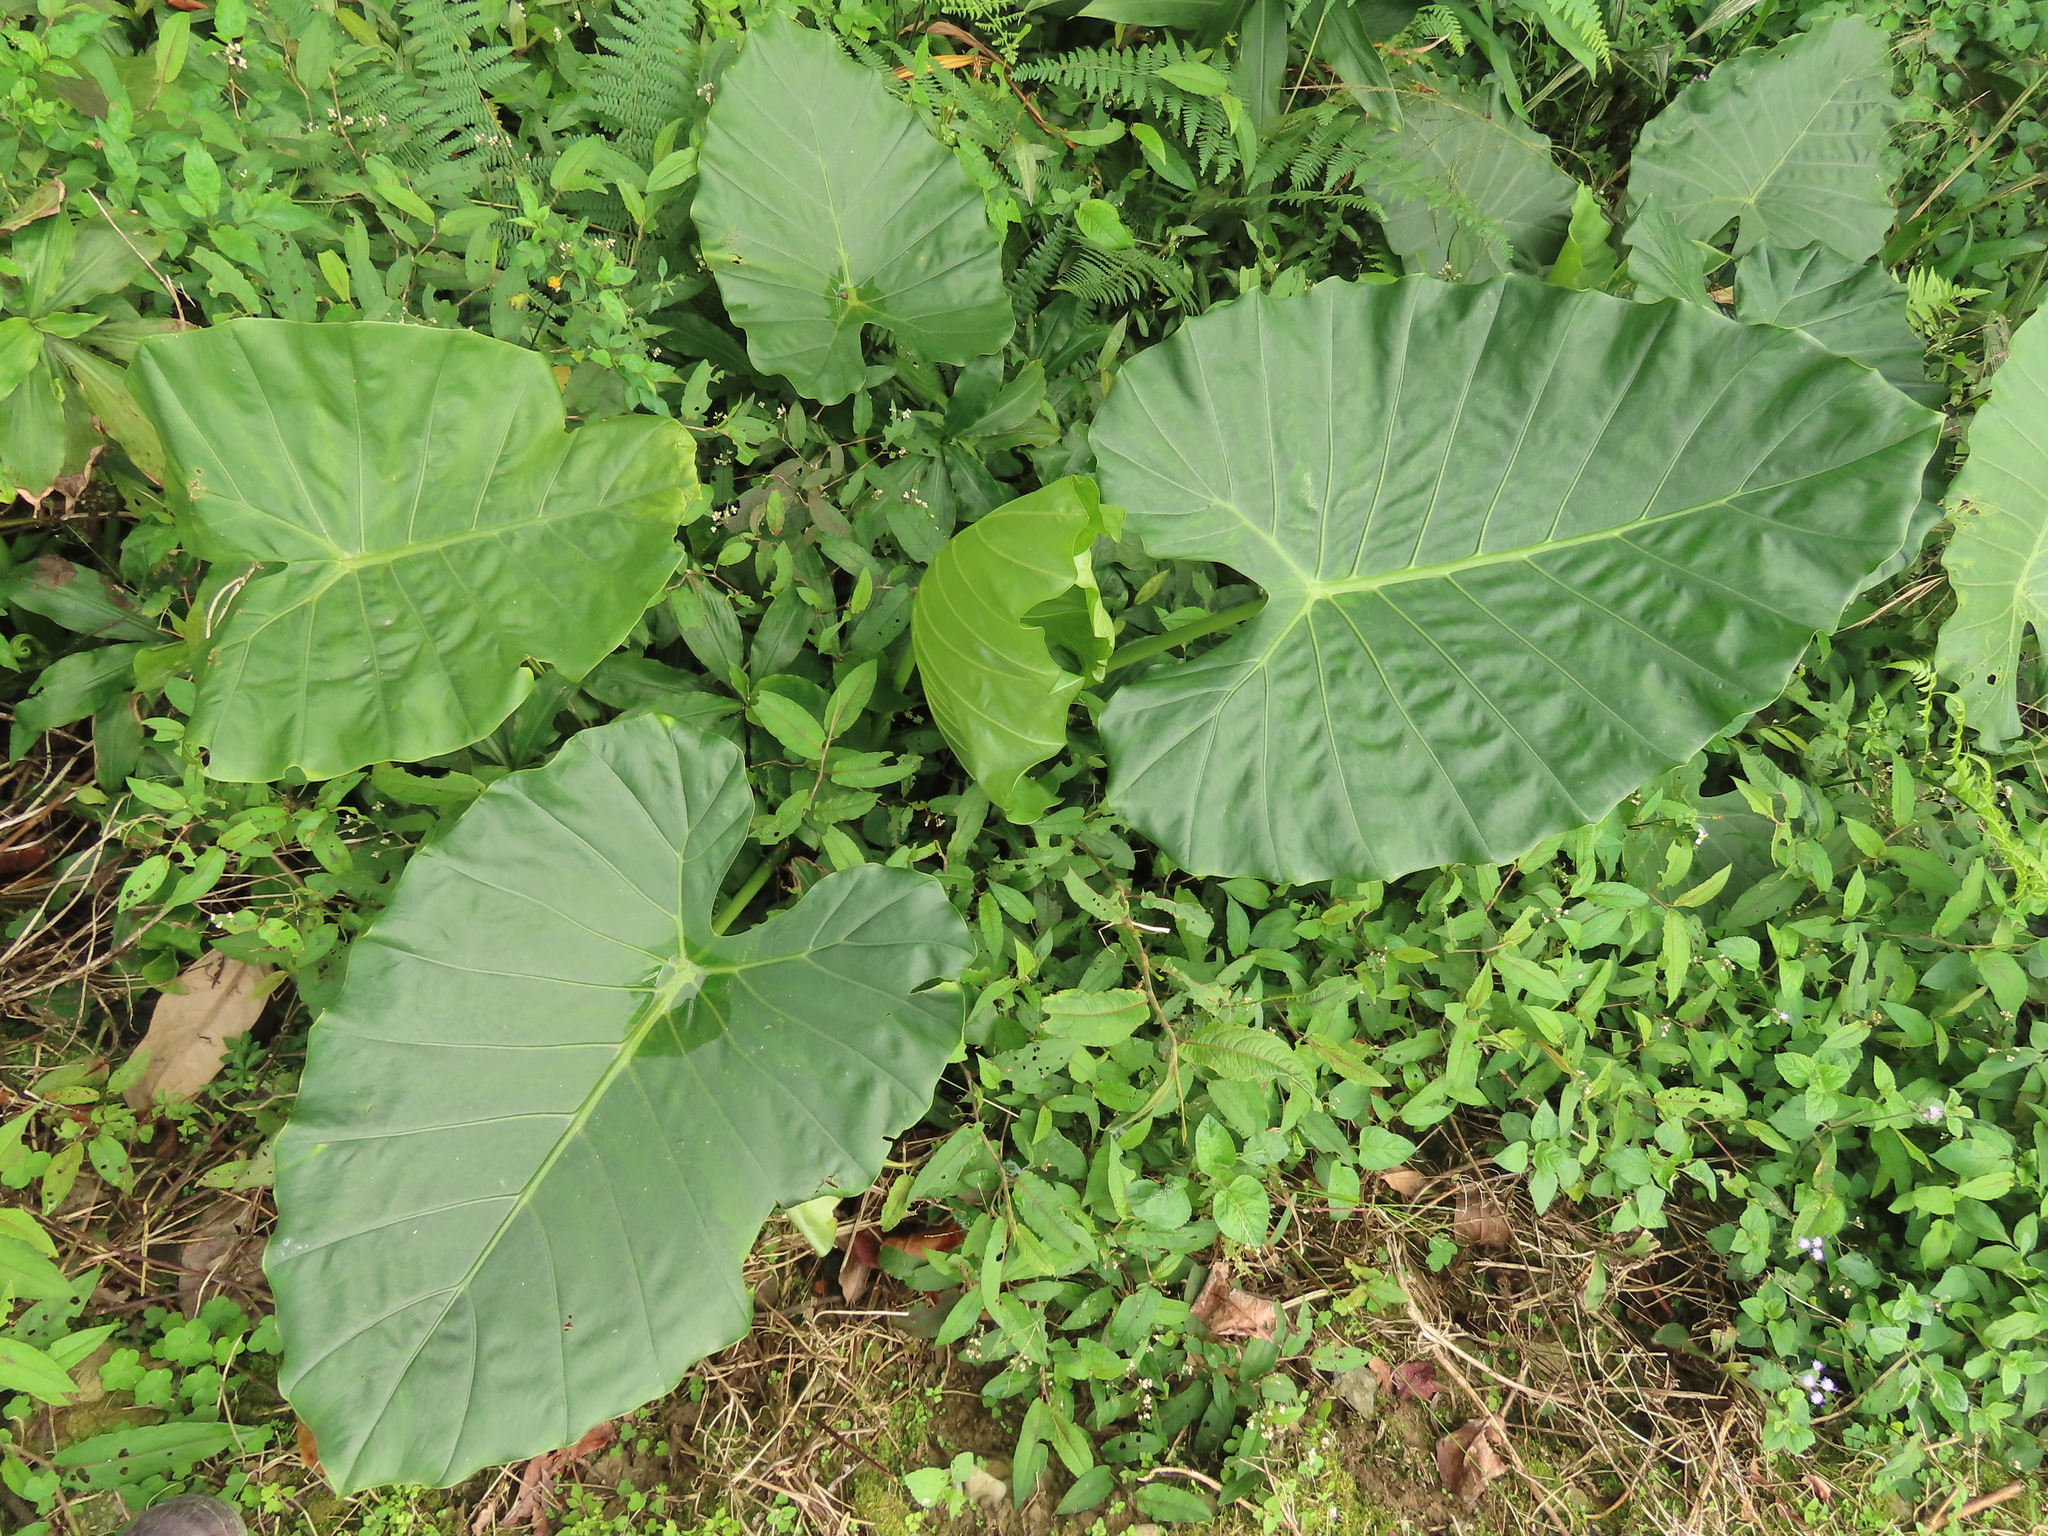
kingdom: Plantae
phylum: Tracheophyta
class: Liliopsida
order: Alismatales
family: Araceae
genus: Alocasia
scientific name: Alocasia odora
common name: Asian taro
